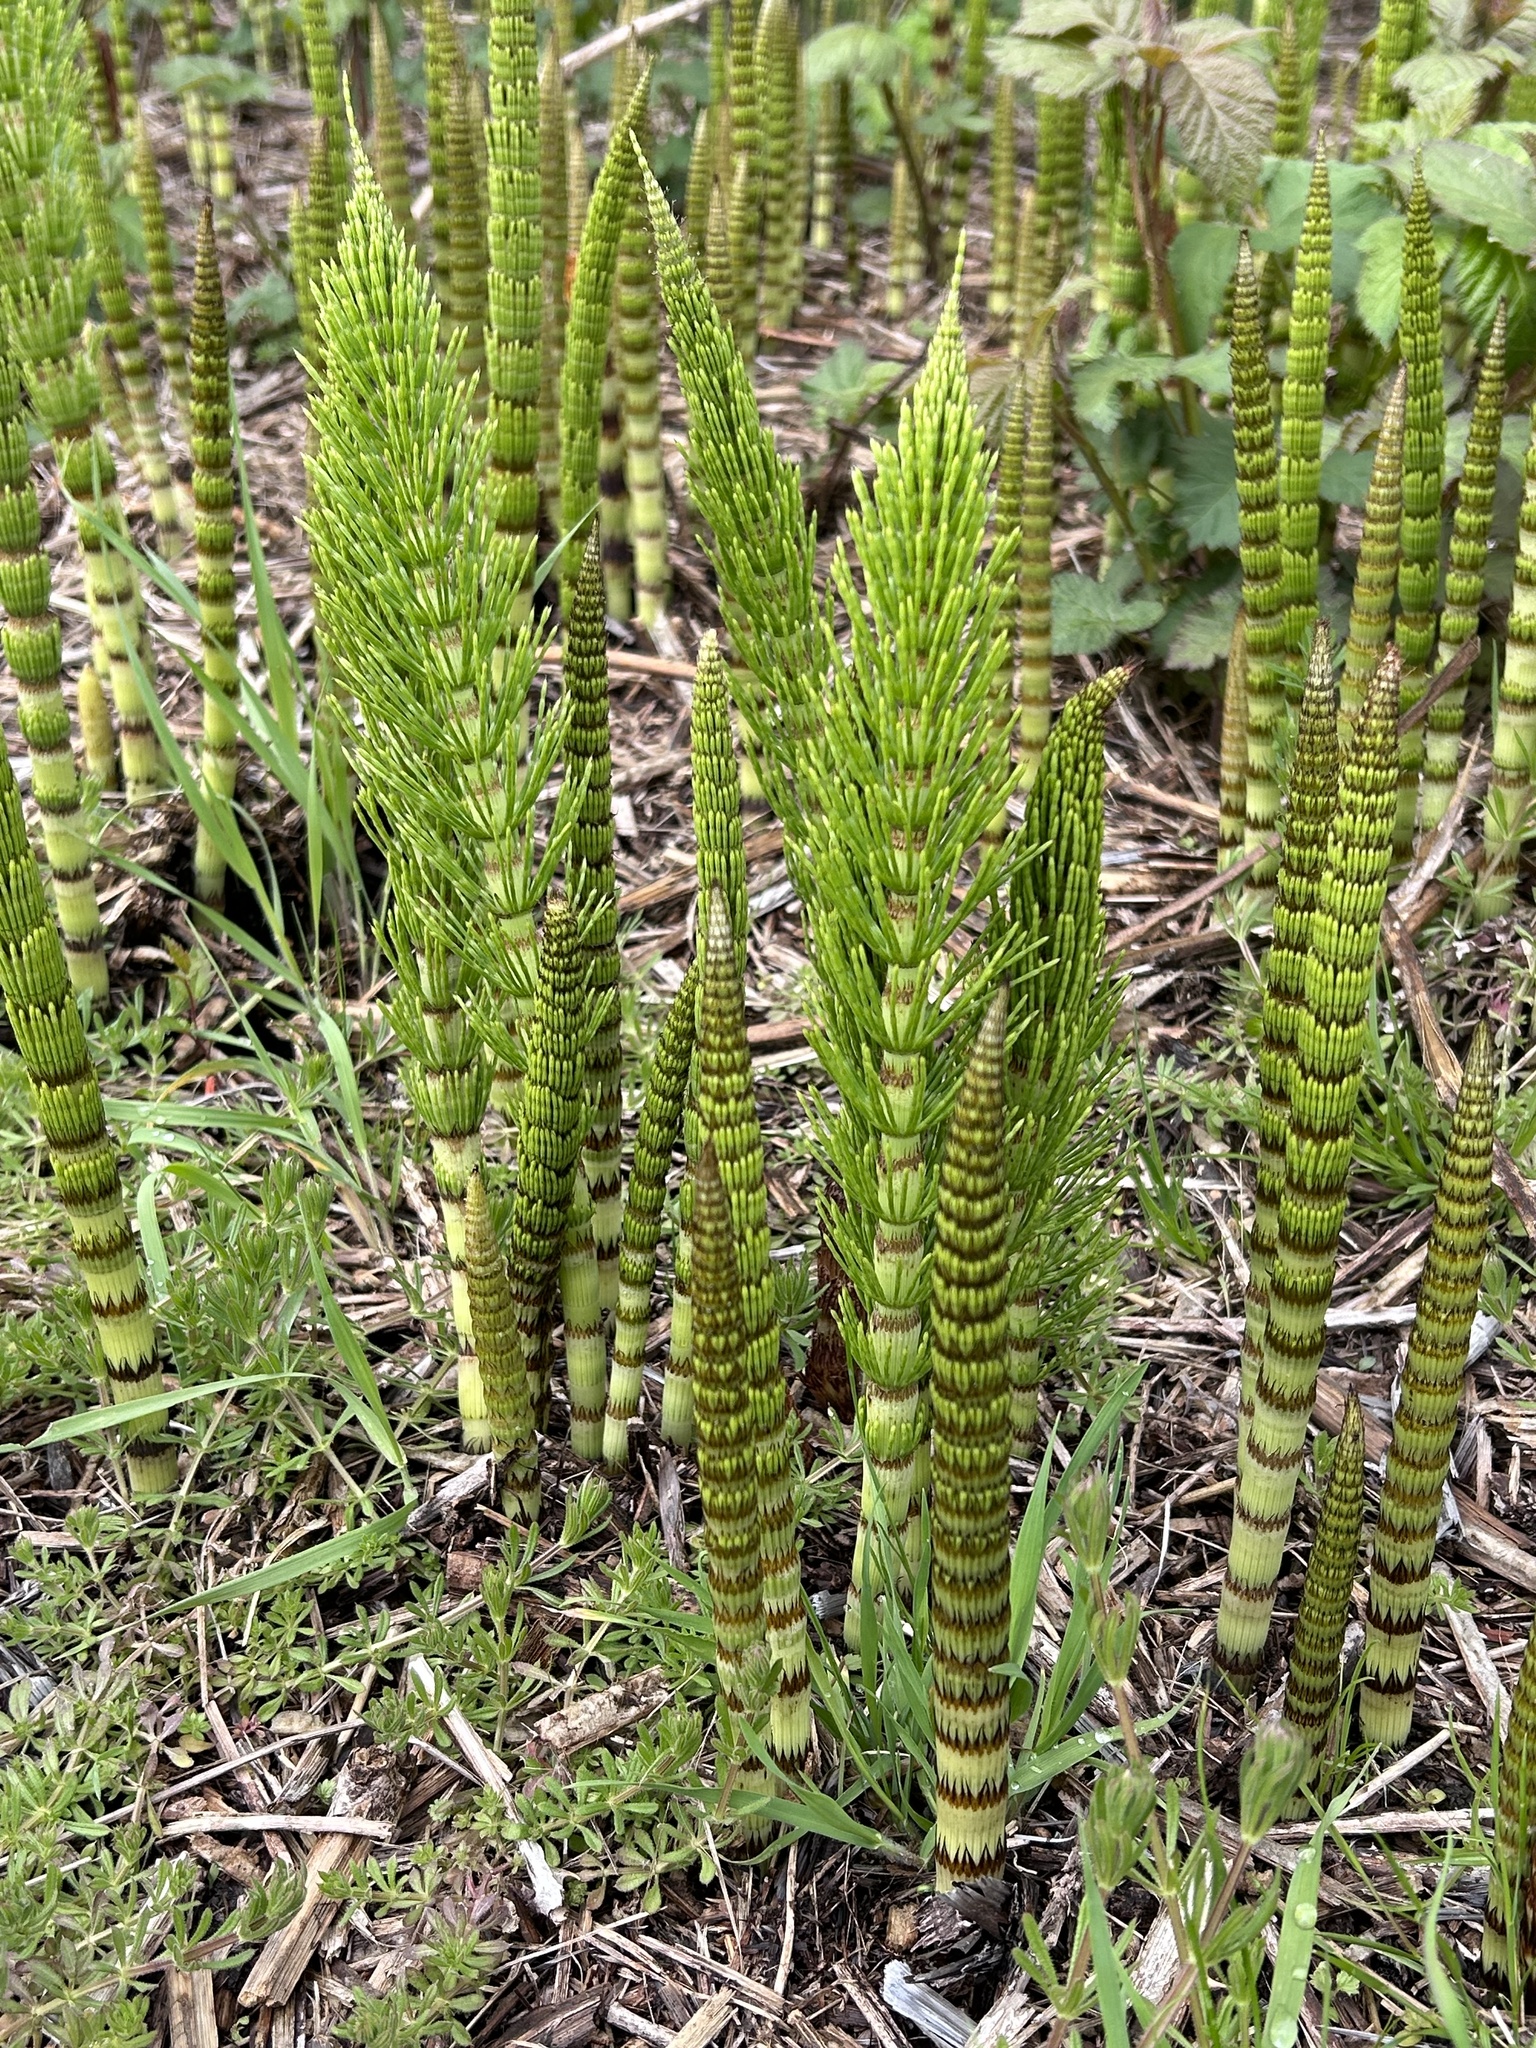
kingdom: Plantae
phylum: Tracheophyta
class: Polypodiopsida
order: Equisetales
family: Equisetaceae
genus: Equisetum
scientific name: Equisetum braunii
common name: Braun's horsetail
